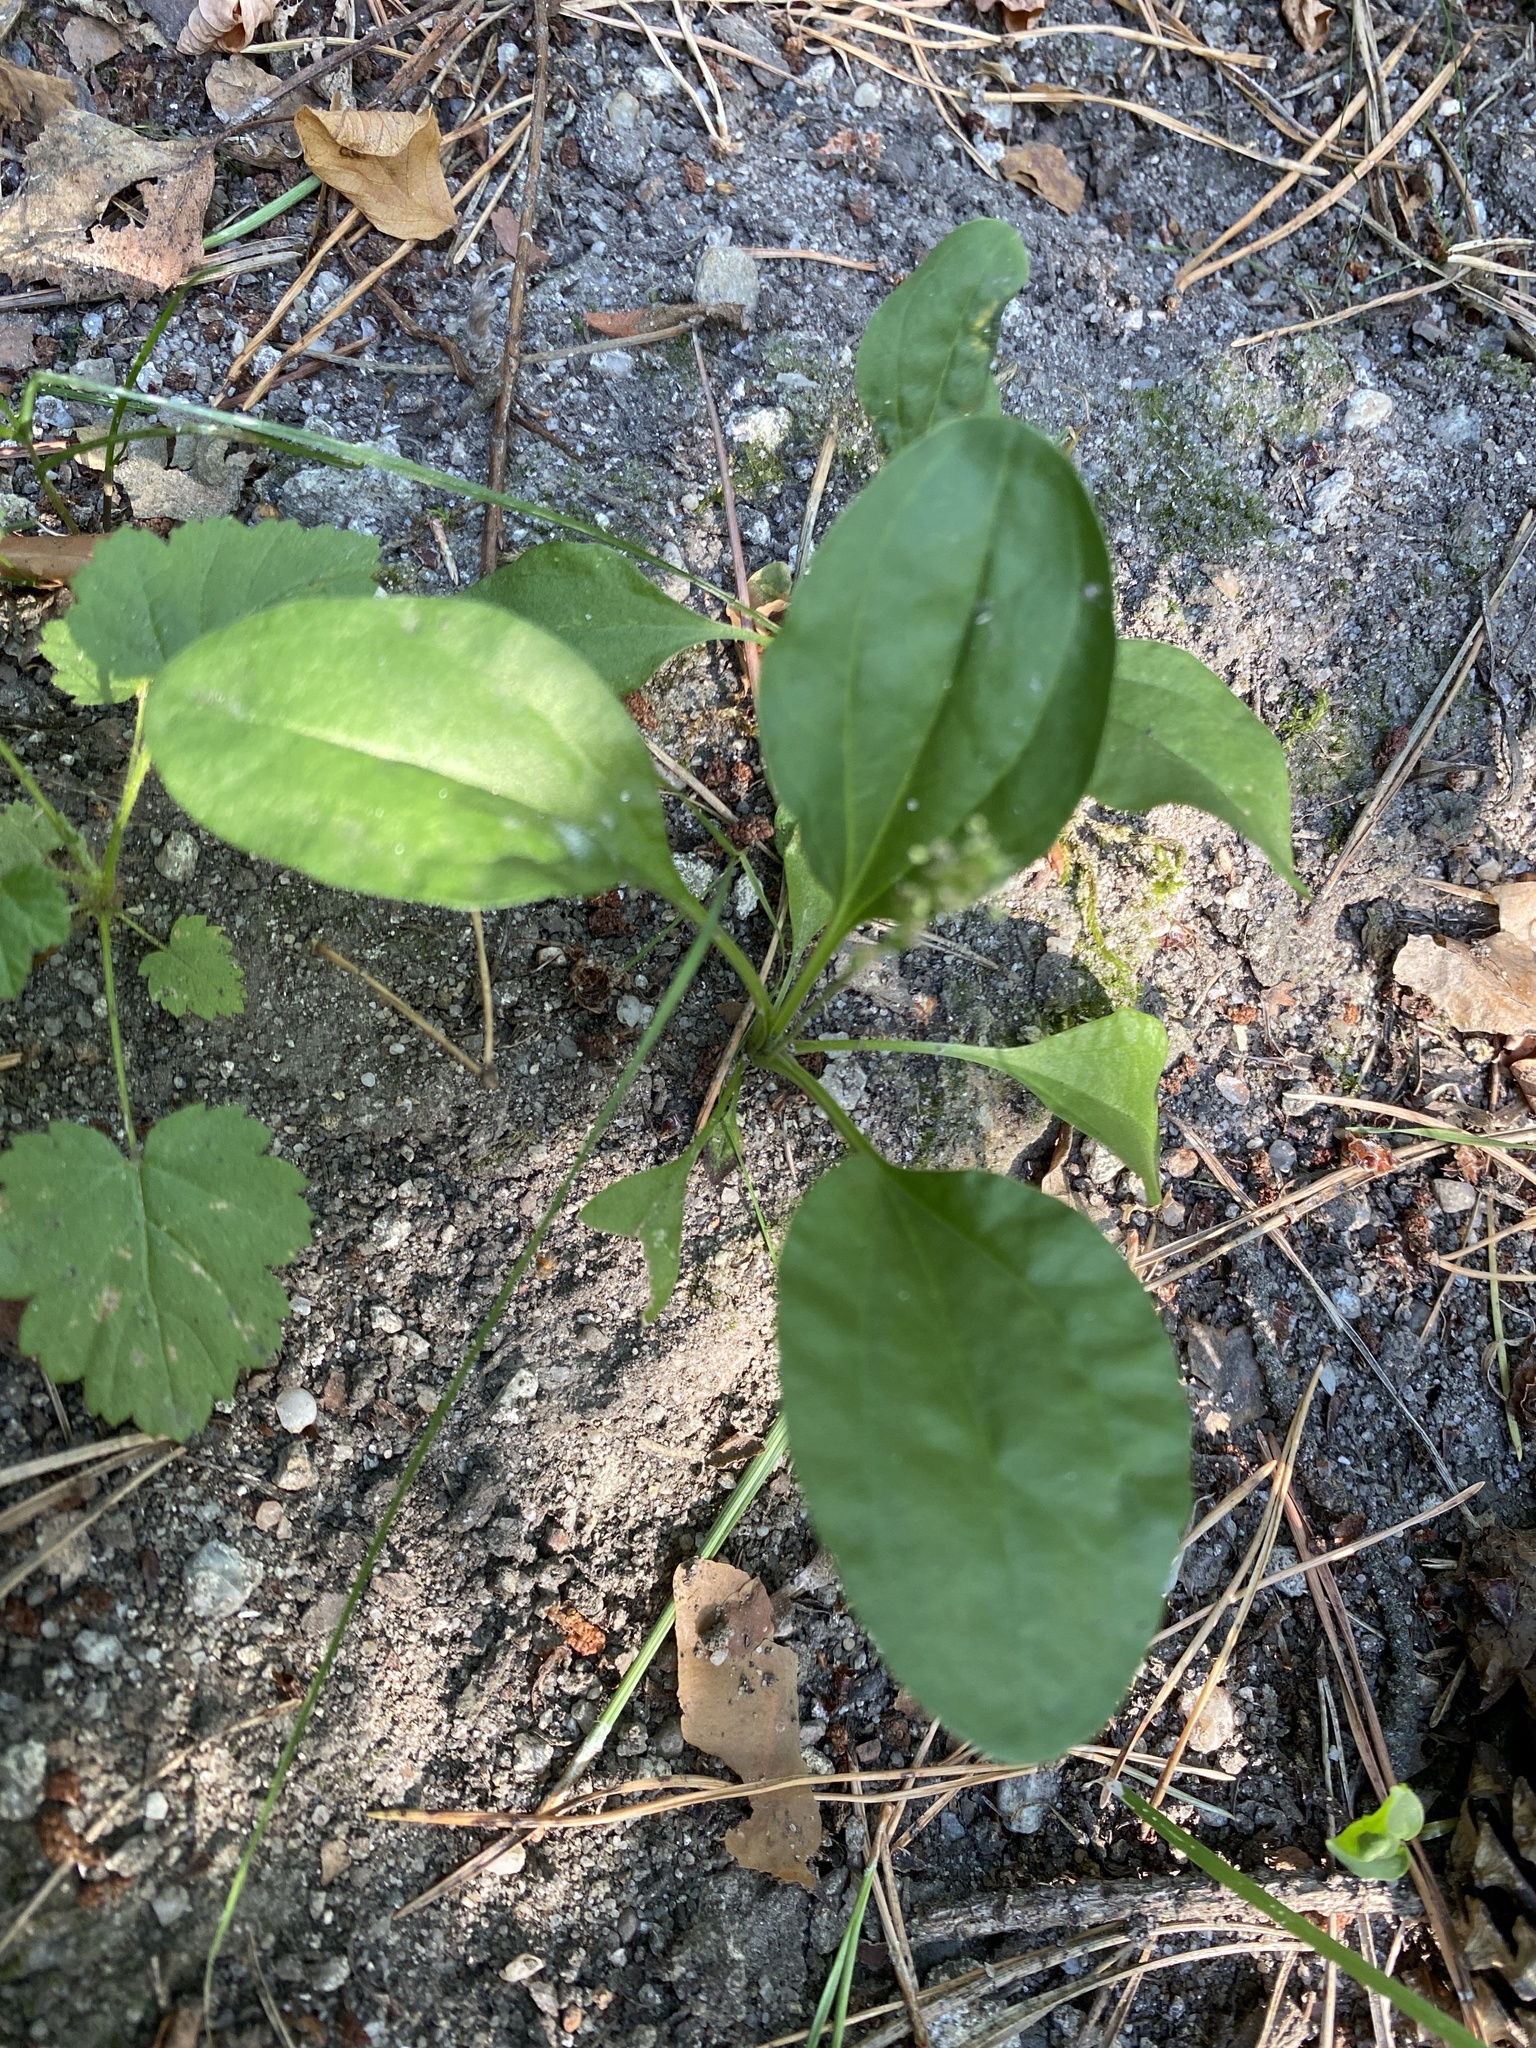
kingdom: Plantae
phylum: Tracheophyta
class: Magnoliopsida
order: Lamiales
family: Plantaginaceae
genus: Plantago
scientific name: Plantago uliginosa
